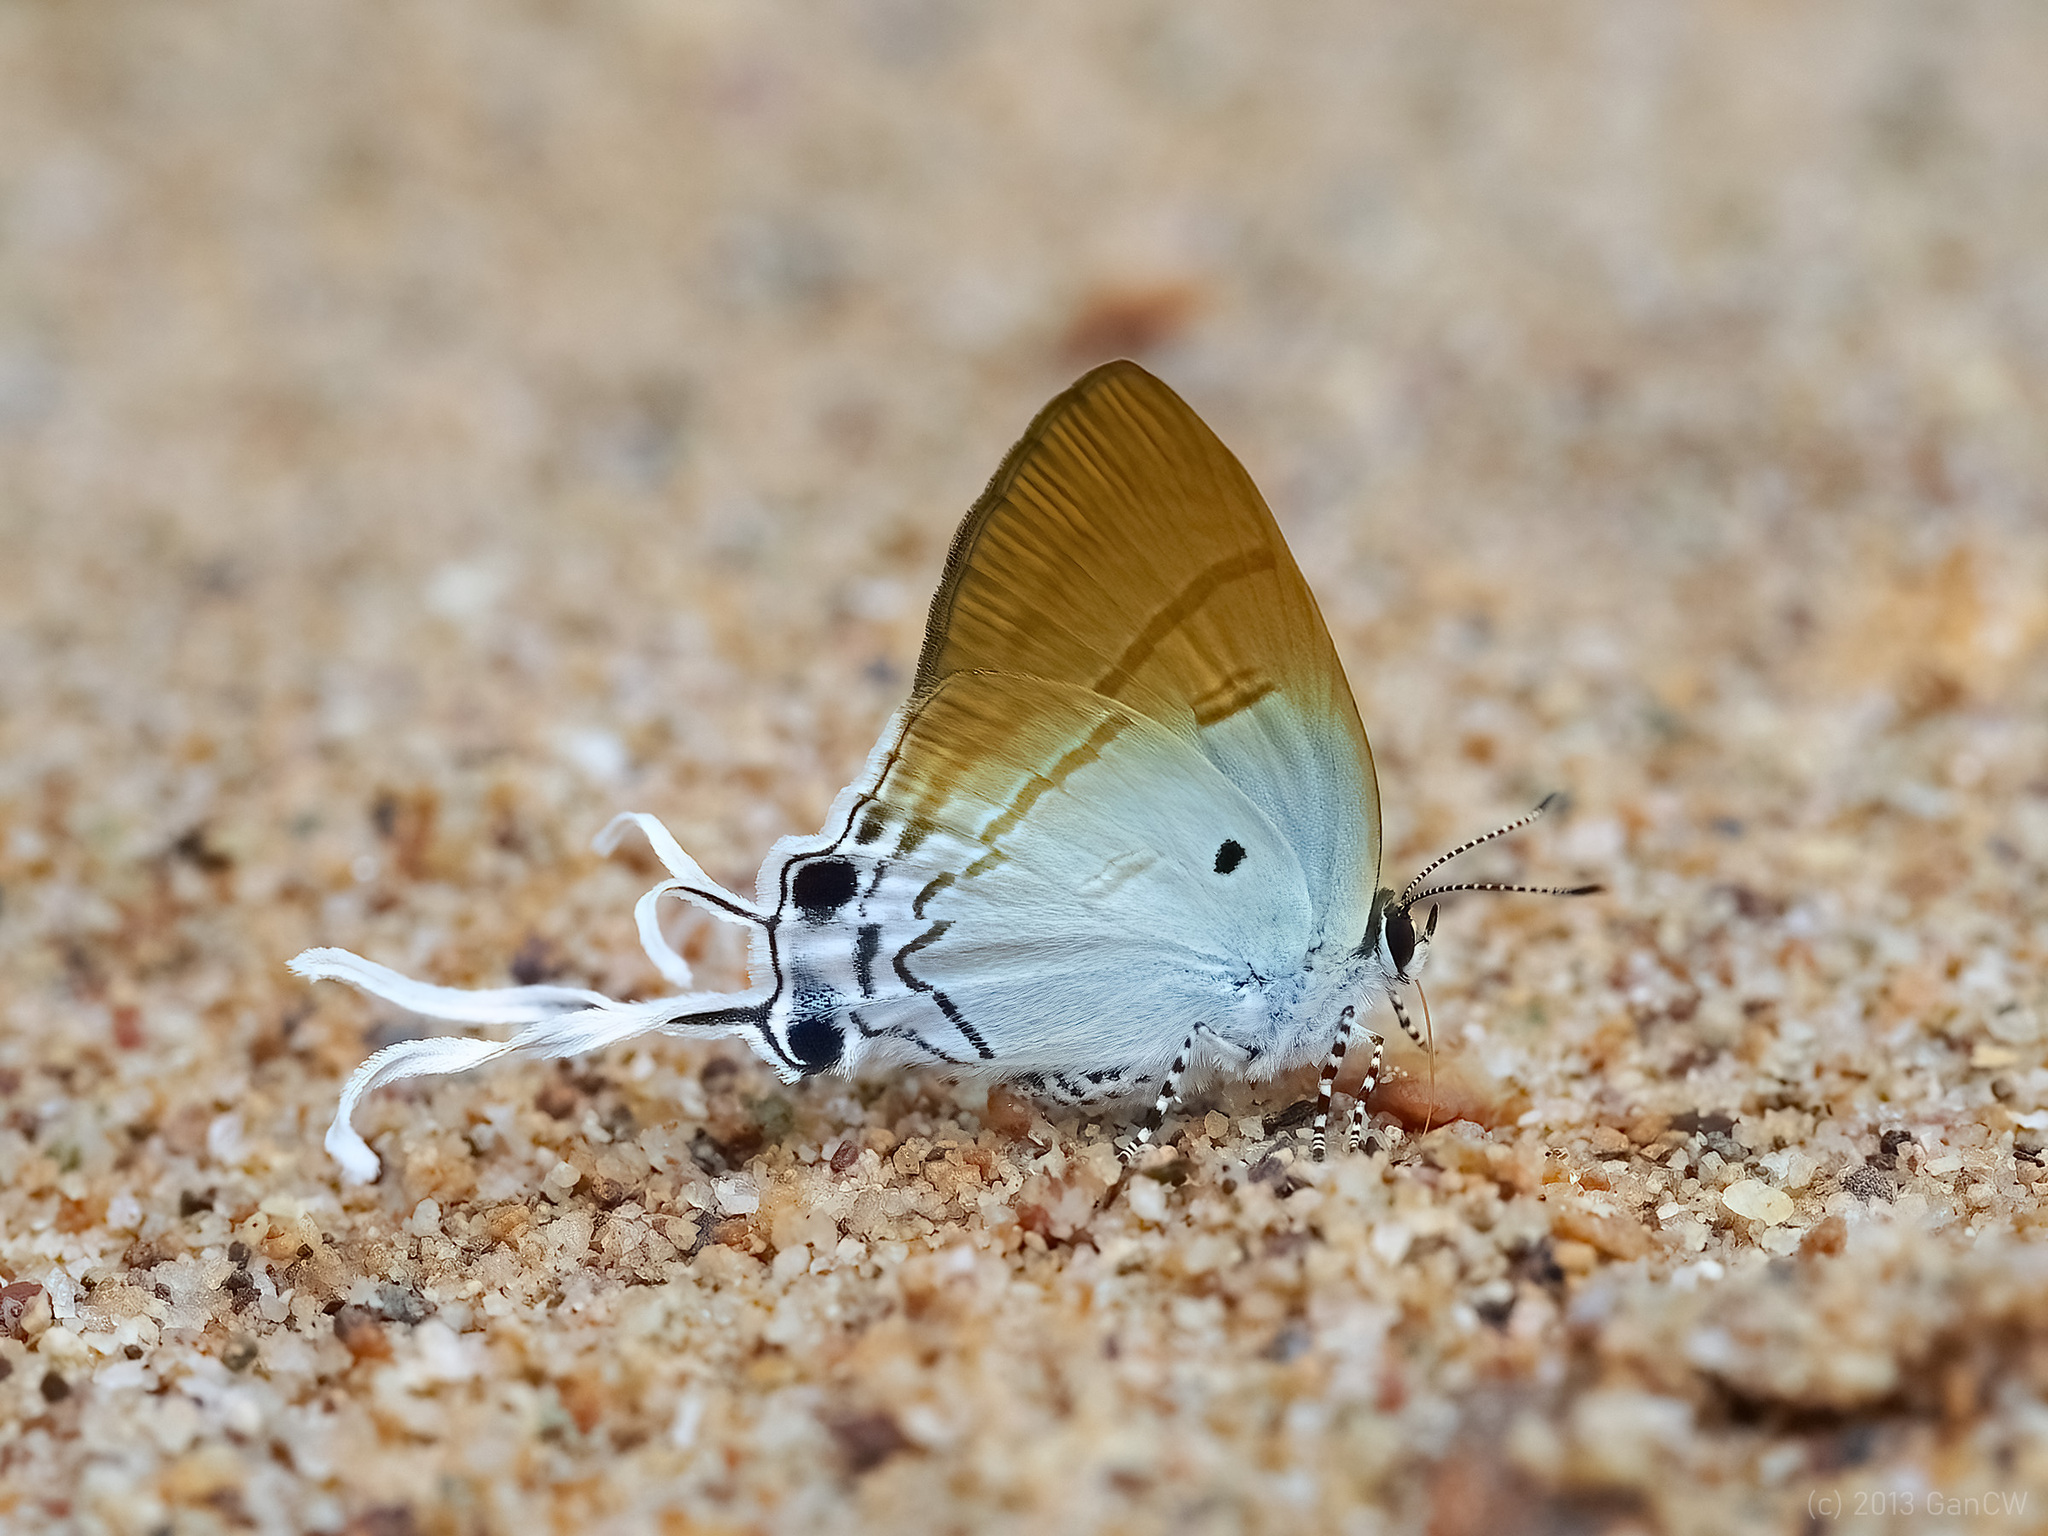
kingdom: Animalia
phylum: Arthropoda
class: Insecta
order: Lepidoptera
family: Lycaenidae
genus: Zeltus
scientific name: Zeltus amasa
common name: Fluffy tit
